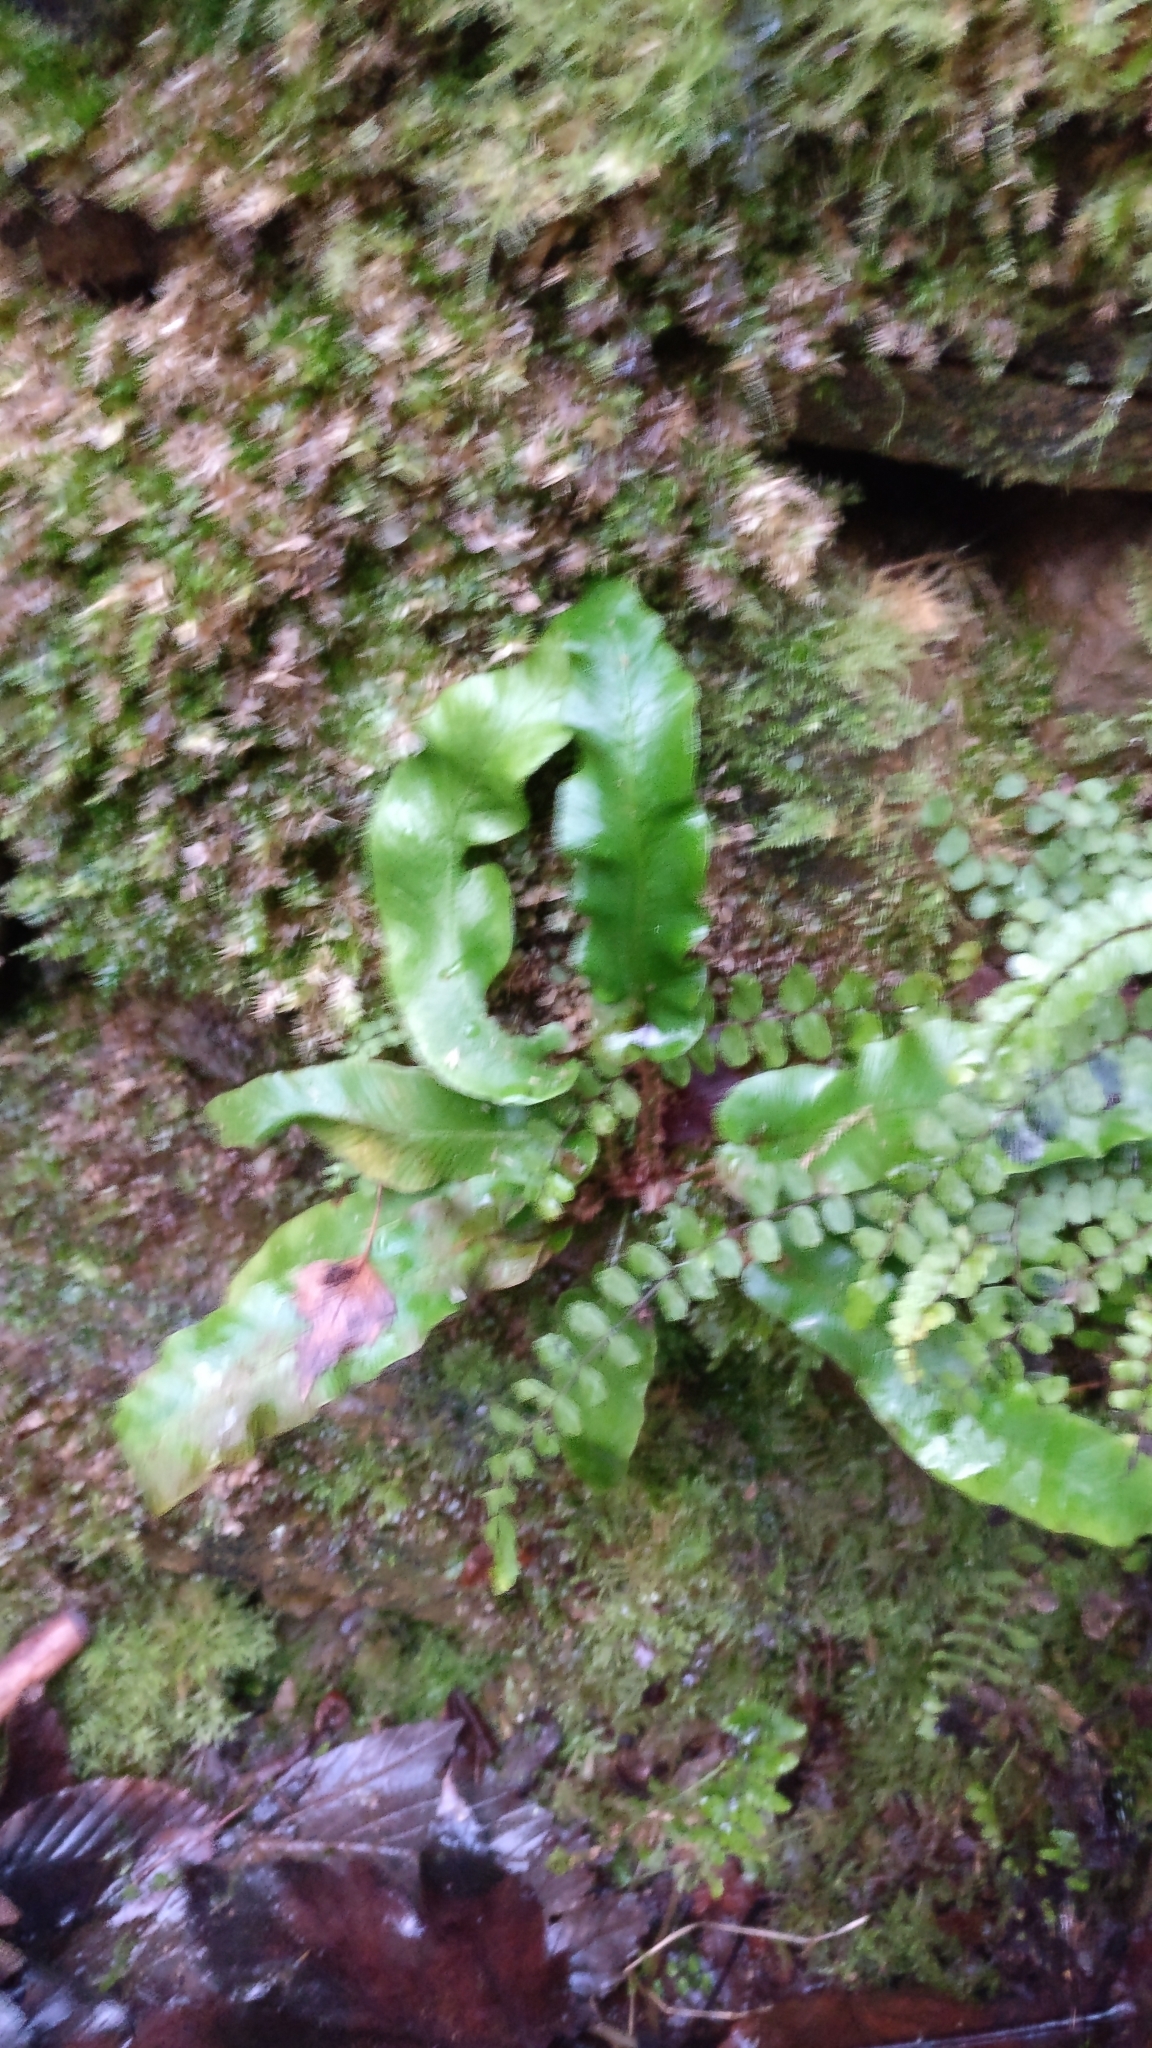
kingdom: Plantae
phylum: Tracheophyta
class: Polypodiopsida
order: Polypodiales
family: Aspleniaceae
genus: Asplenium
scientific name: Asplenium scolopendrium
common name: Hart's-tongue fern
